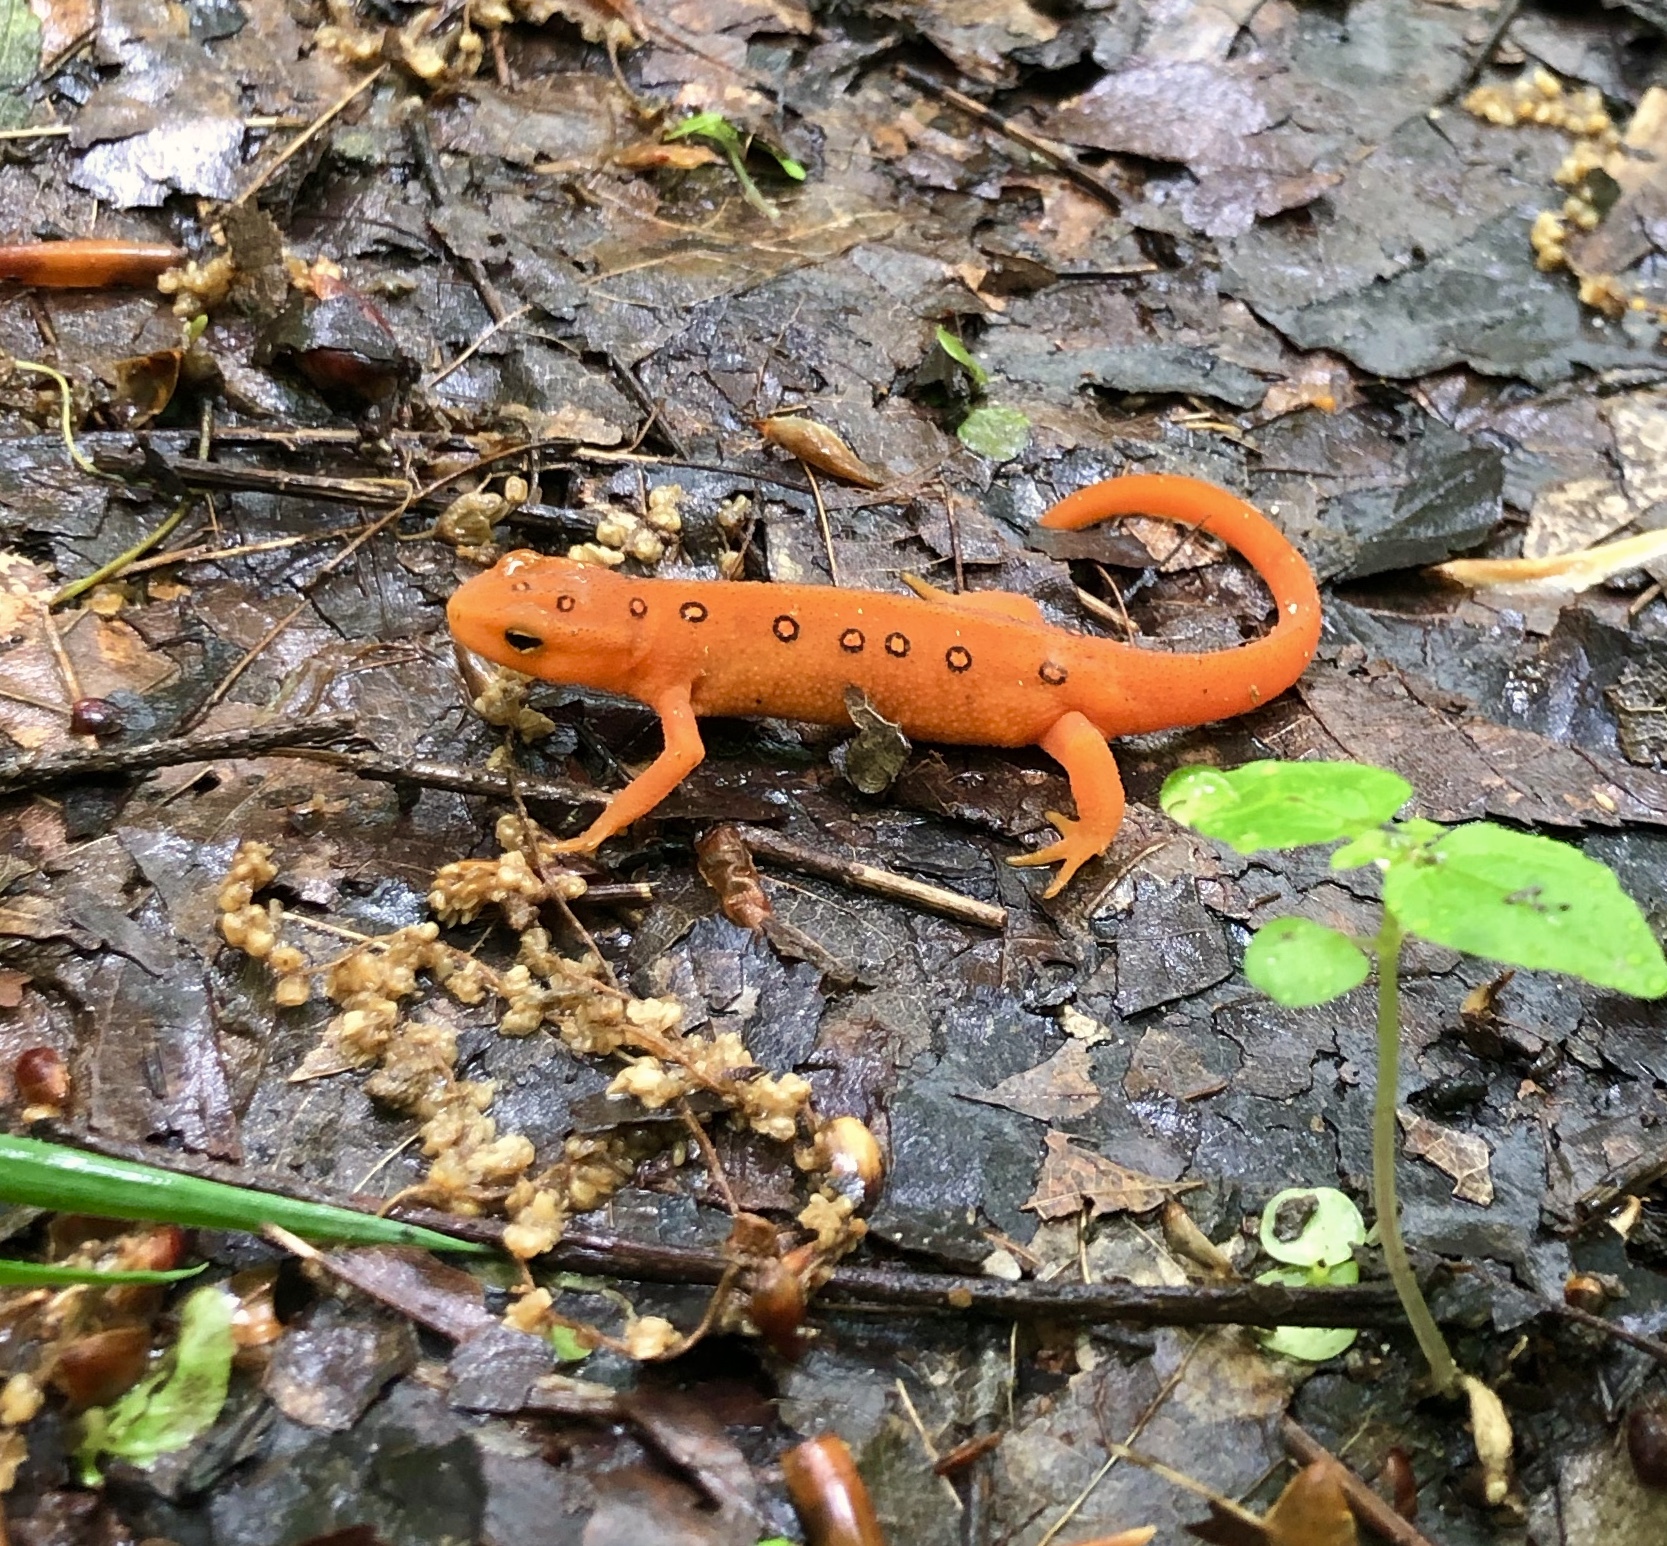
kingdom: Animalia
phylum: Chordata
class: Amphibia
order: Caudata
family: Salamandridae
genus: Notophthalmus
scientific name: Notophthalmus viridescens
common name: Eastern newt
